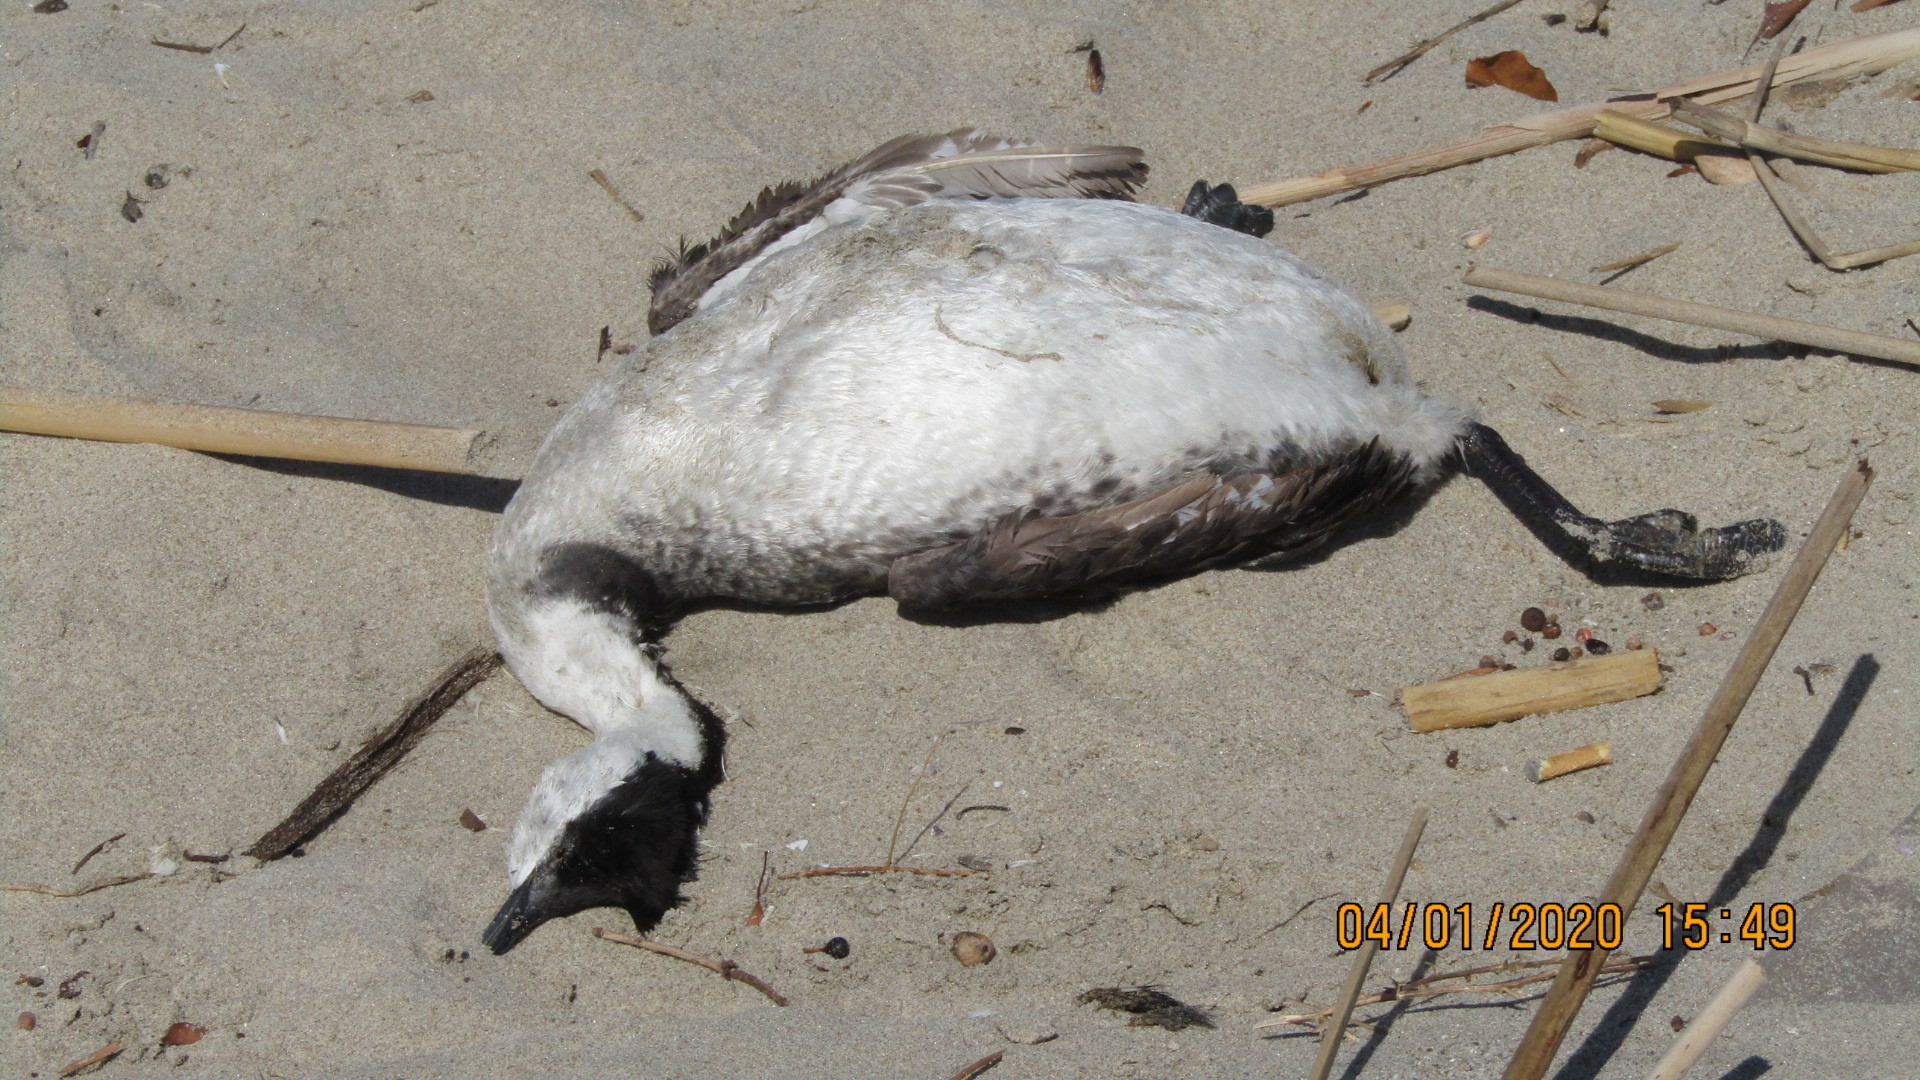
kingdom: Animalia
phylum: Chordata
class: Aves
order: Podicipediformes
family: Podicipedidae
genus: Aechmophorus
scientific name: Aechmophorus occidentalis
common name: Western grebe
